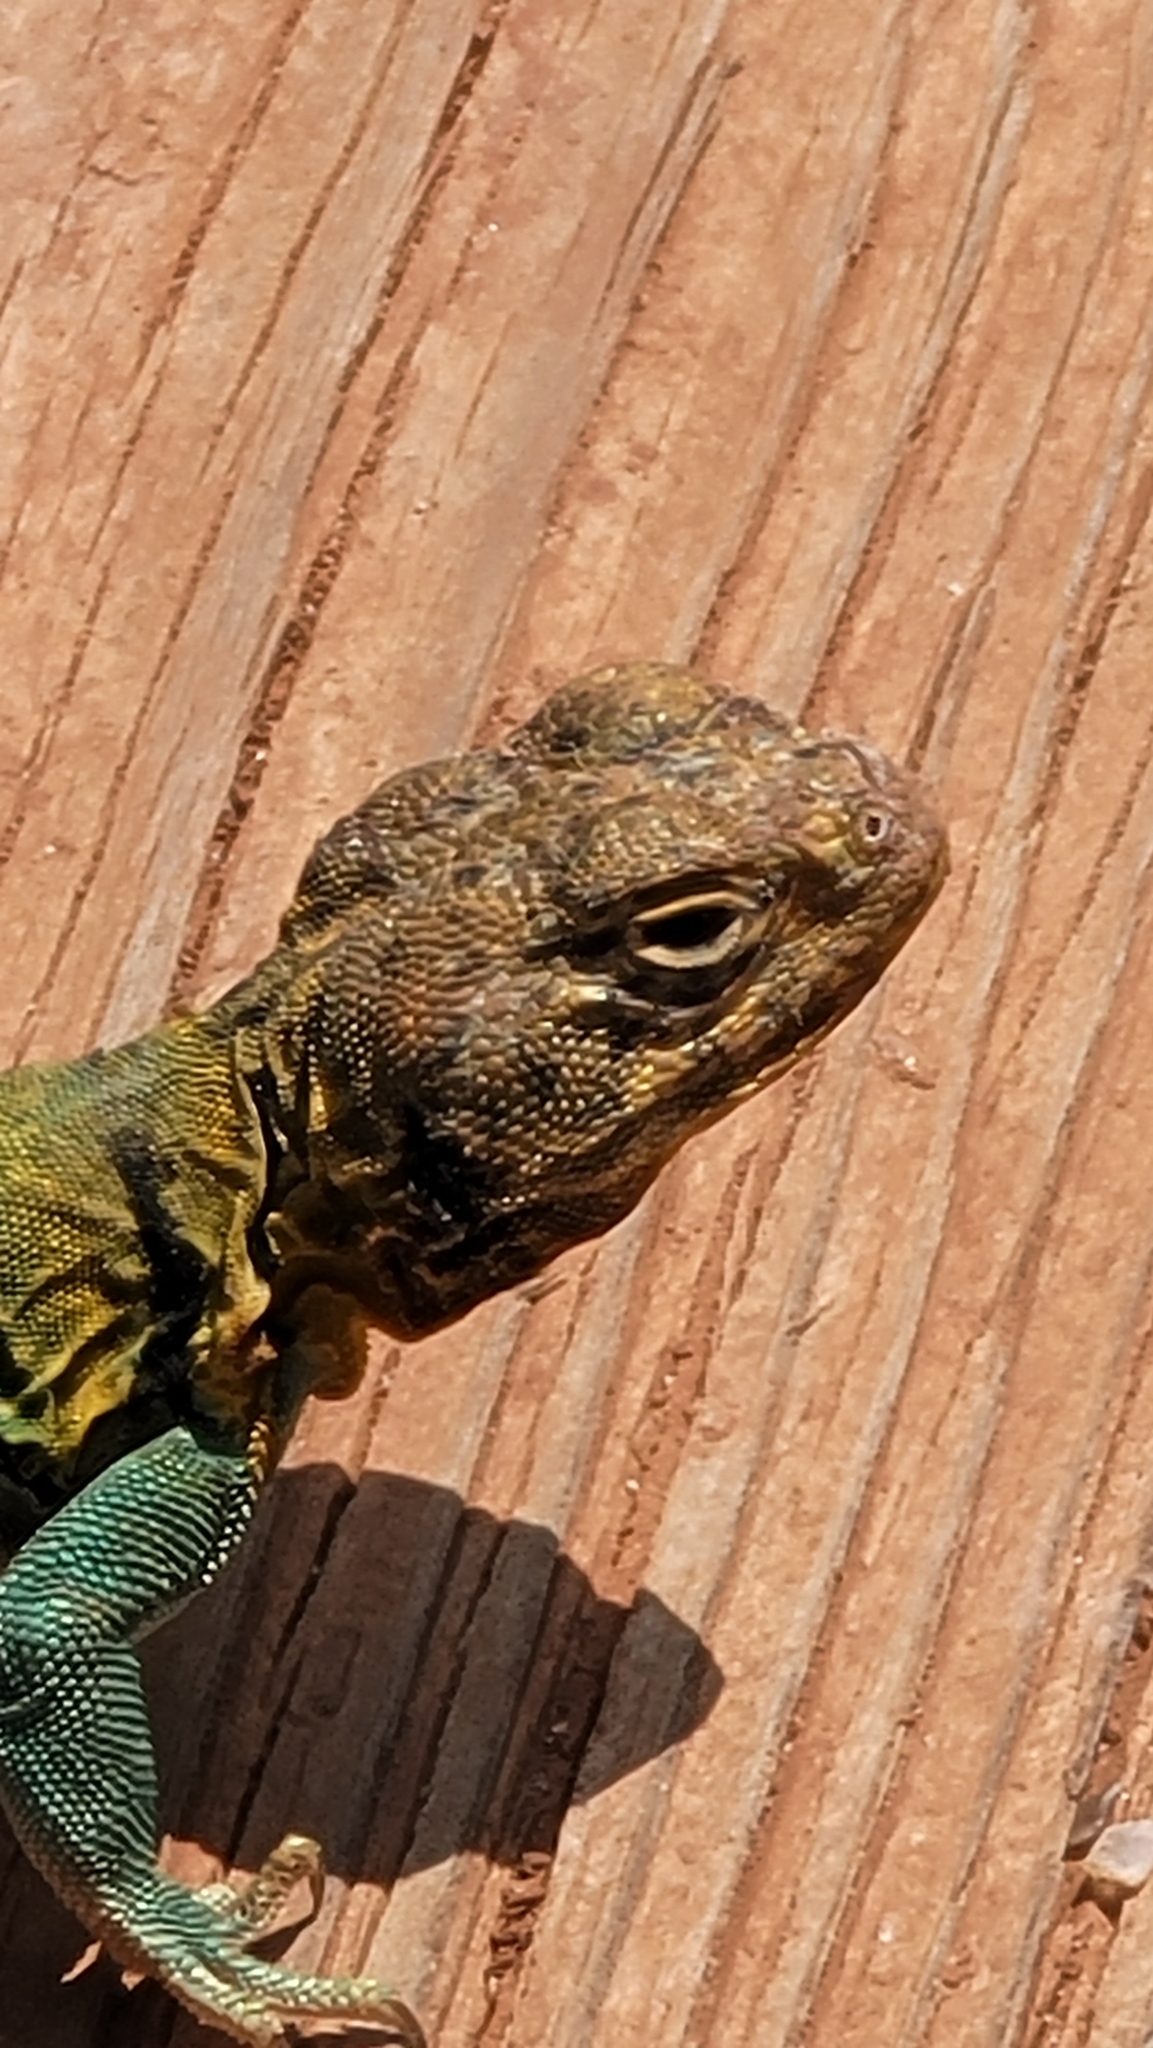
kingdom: Animalia
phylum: Chordata
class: Squamata
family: Crotaphytidae
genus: Crotaphytus
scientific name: Crotaphytus collaris
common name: Collared lizard
